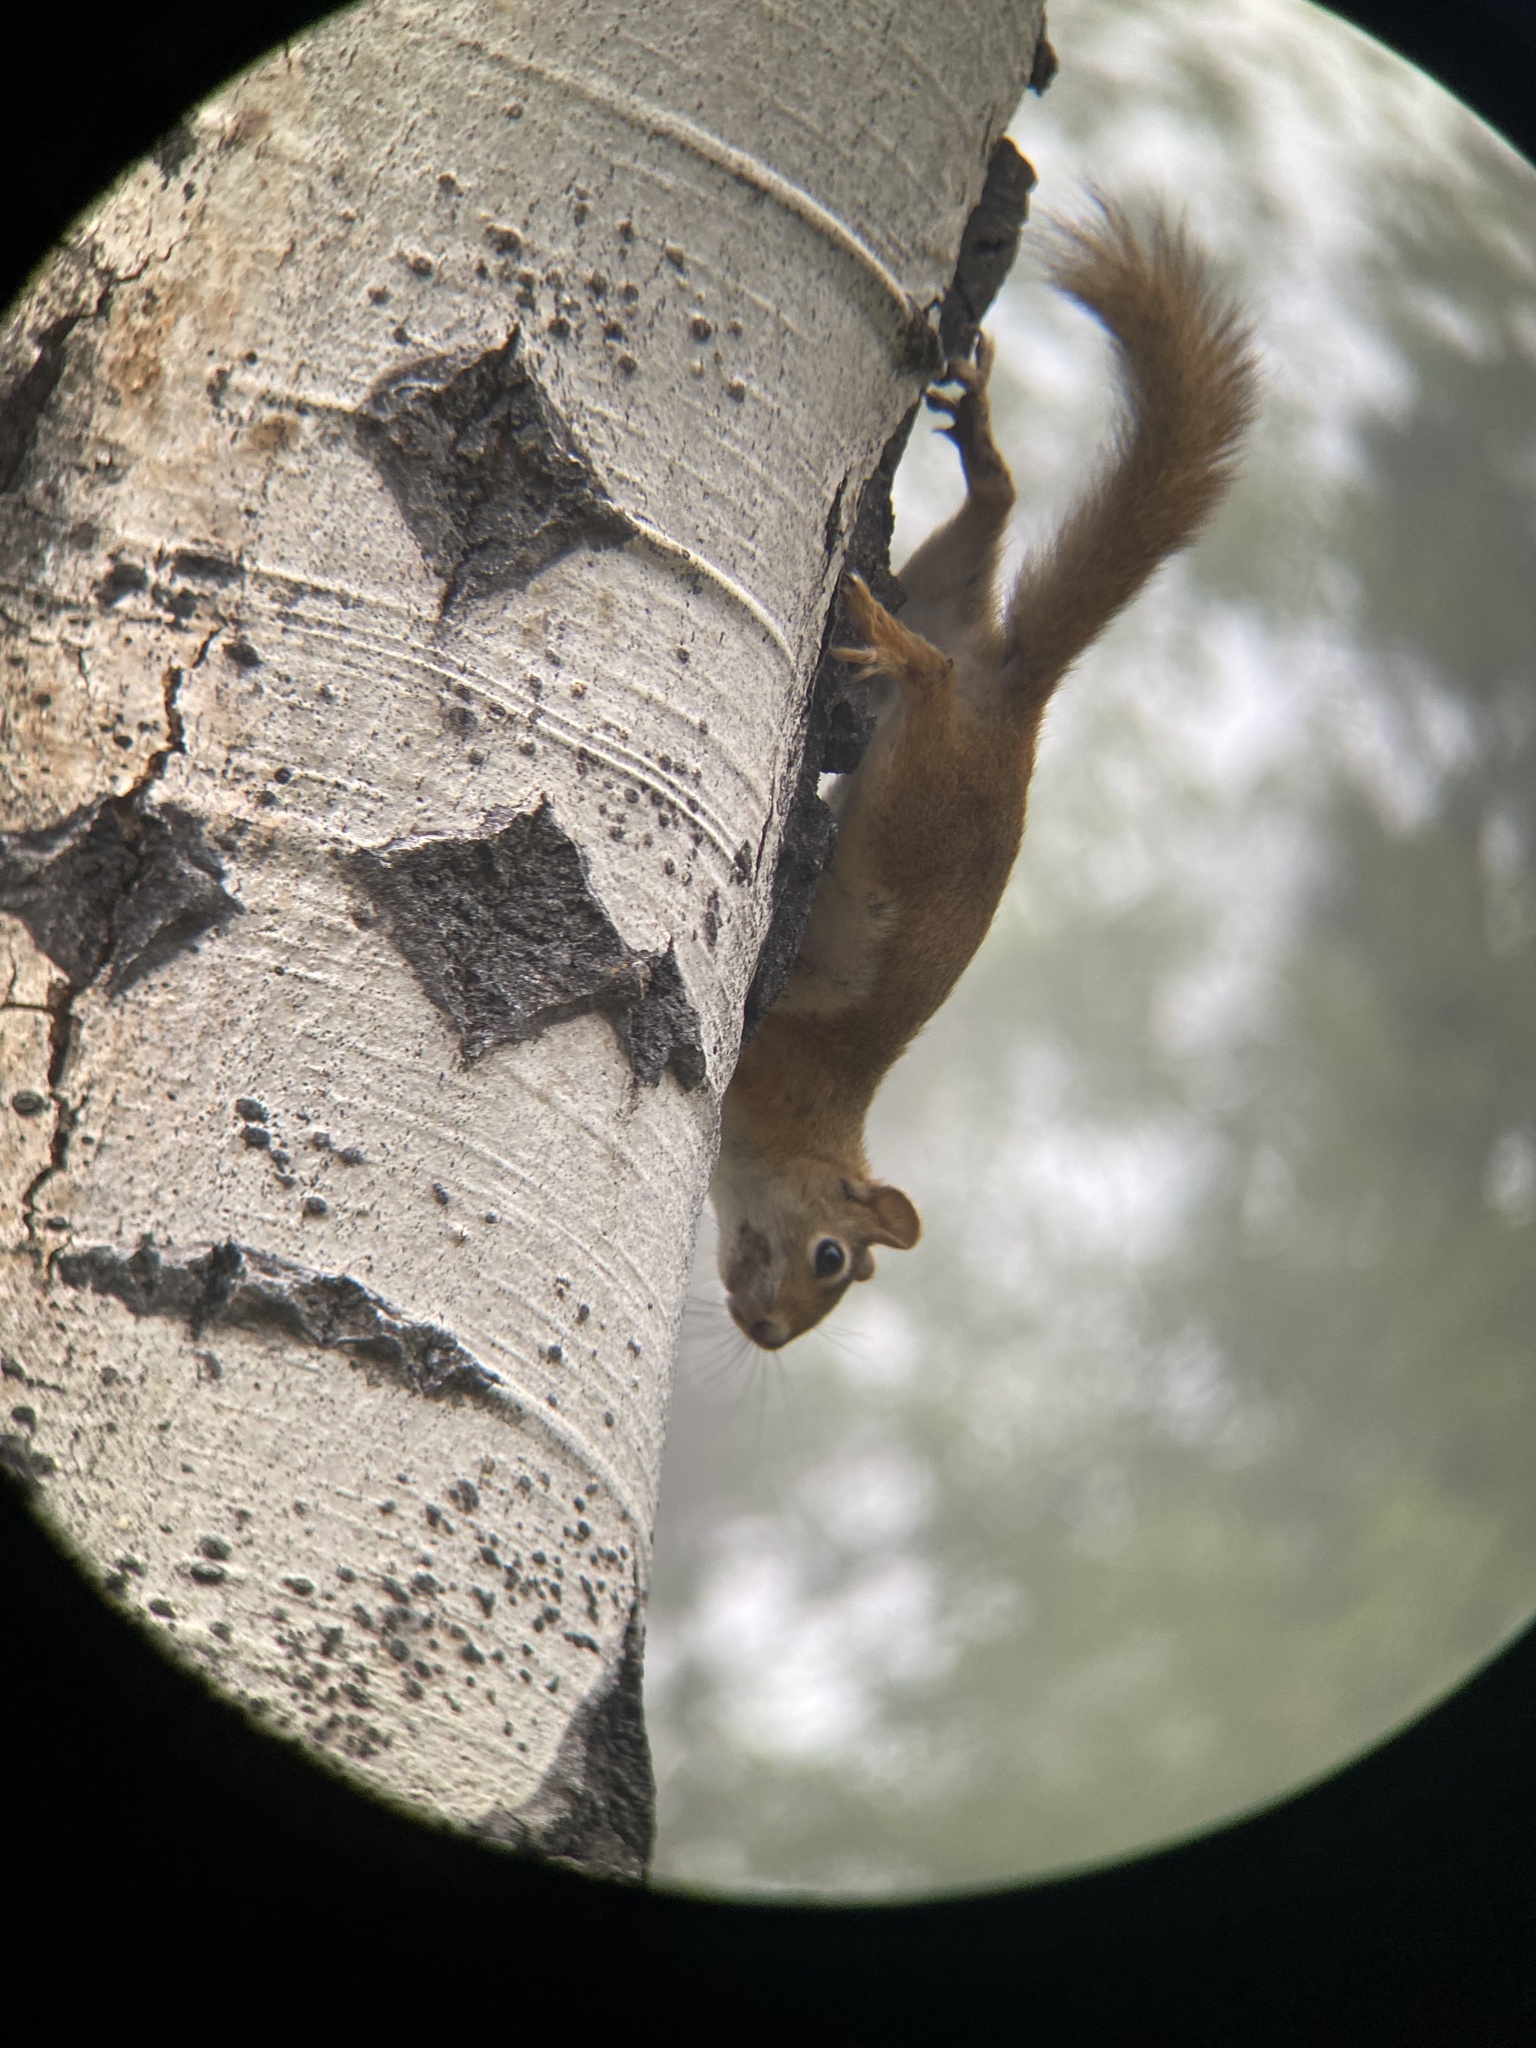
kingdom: Animalia
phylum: Chordata
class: Mammalia
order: Rodentia
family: Sciuridae
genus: Tamiasciurus
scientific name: Tamiasciurus hudsonicus
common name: Red squirrel
